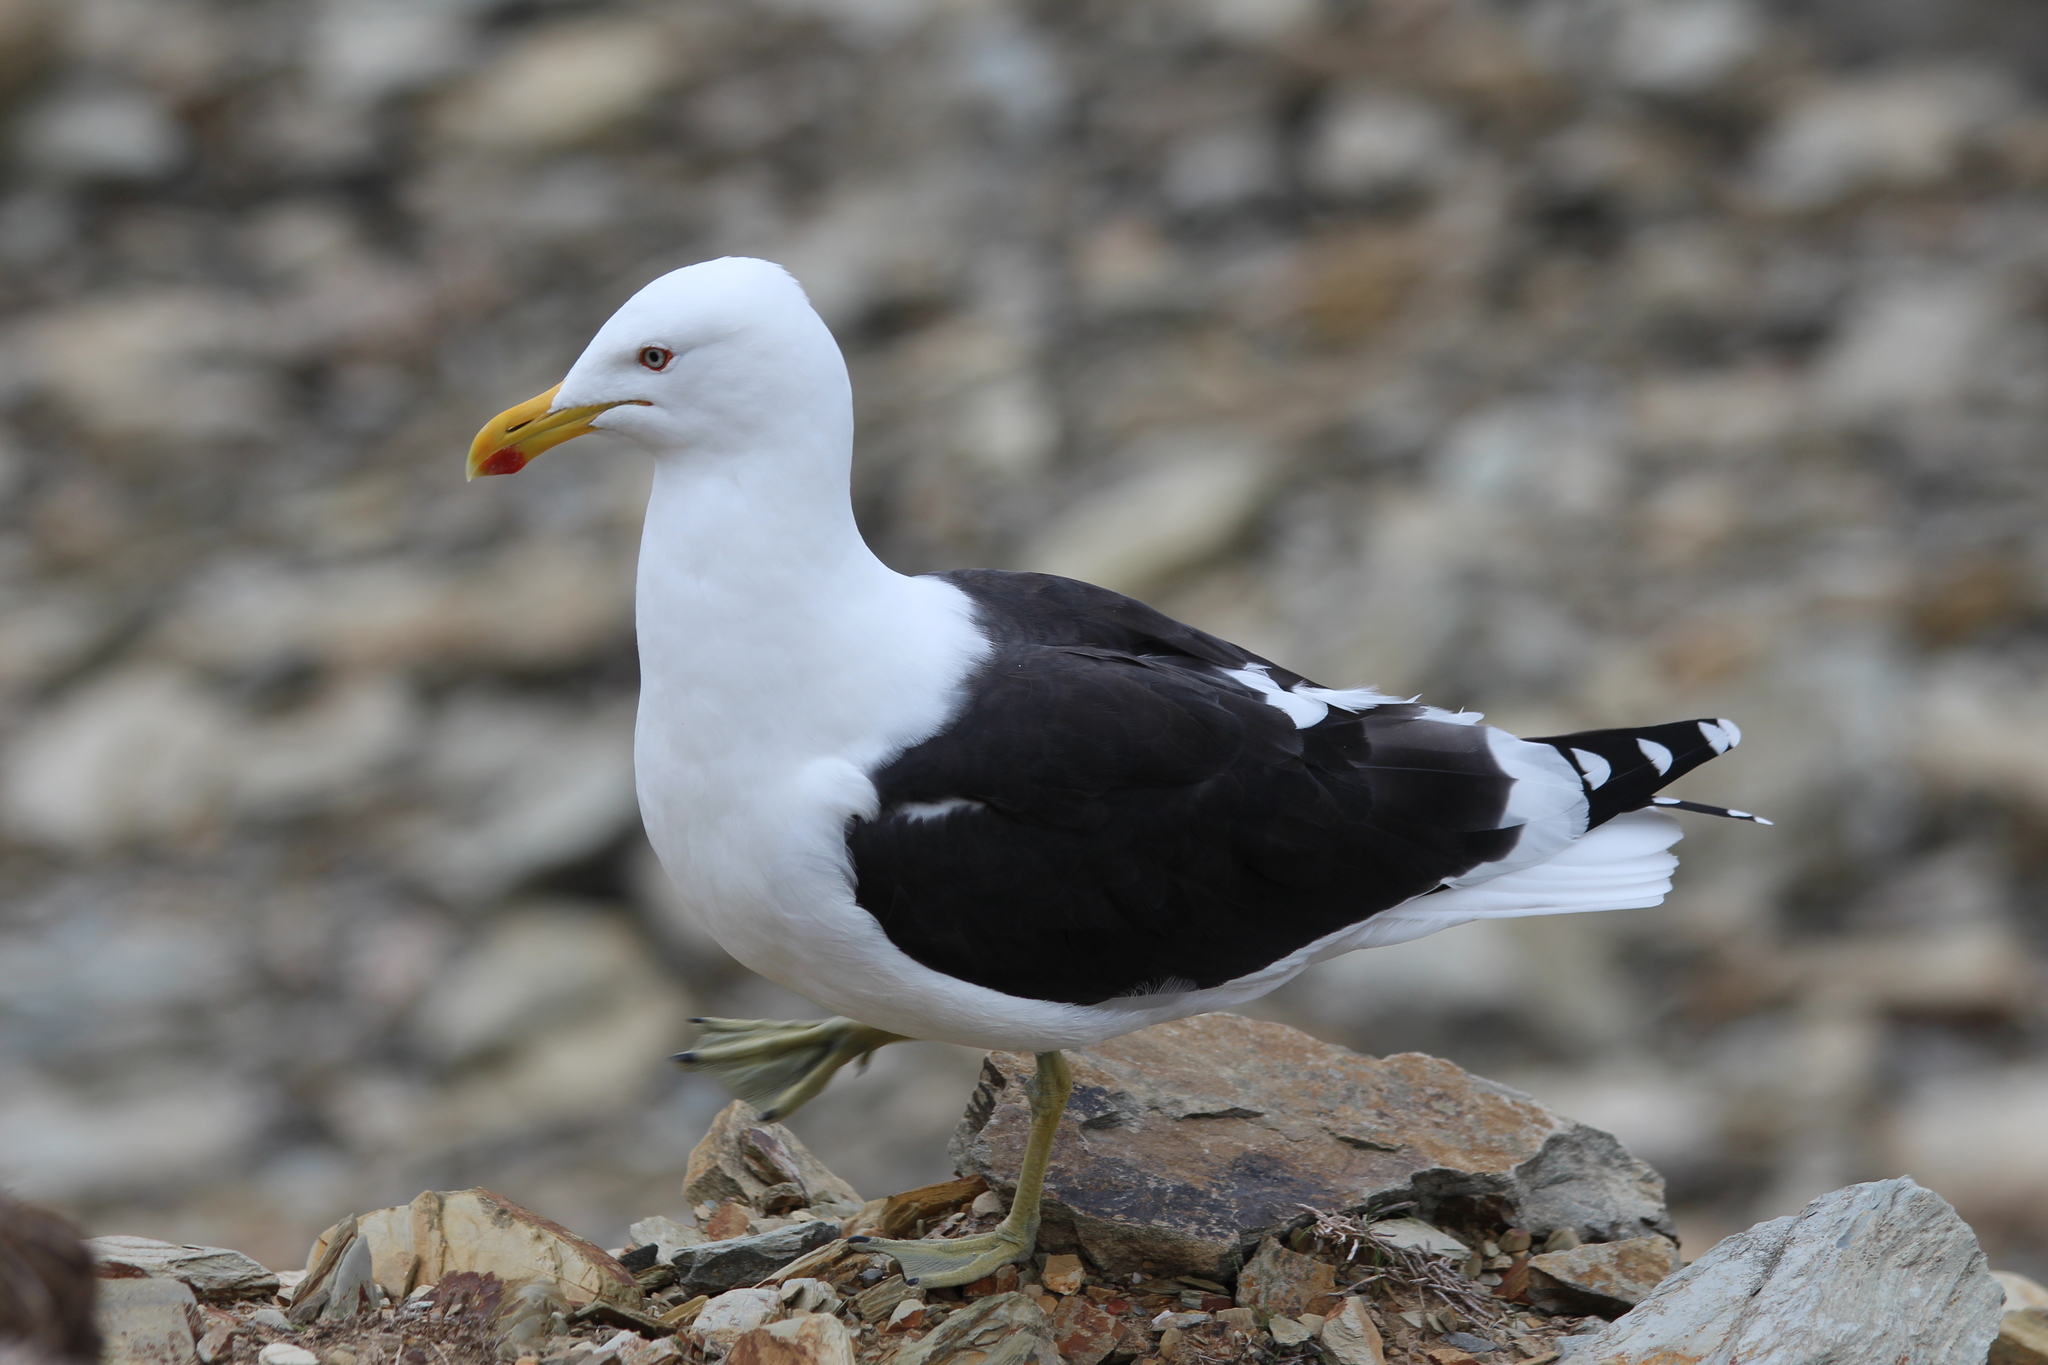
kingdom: Animalia
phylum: Chordata
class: Aves
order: Charadriiformes
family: Laridae
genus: Larus
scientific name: Larus dominicanus
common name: Kelp gull
